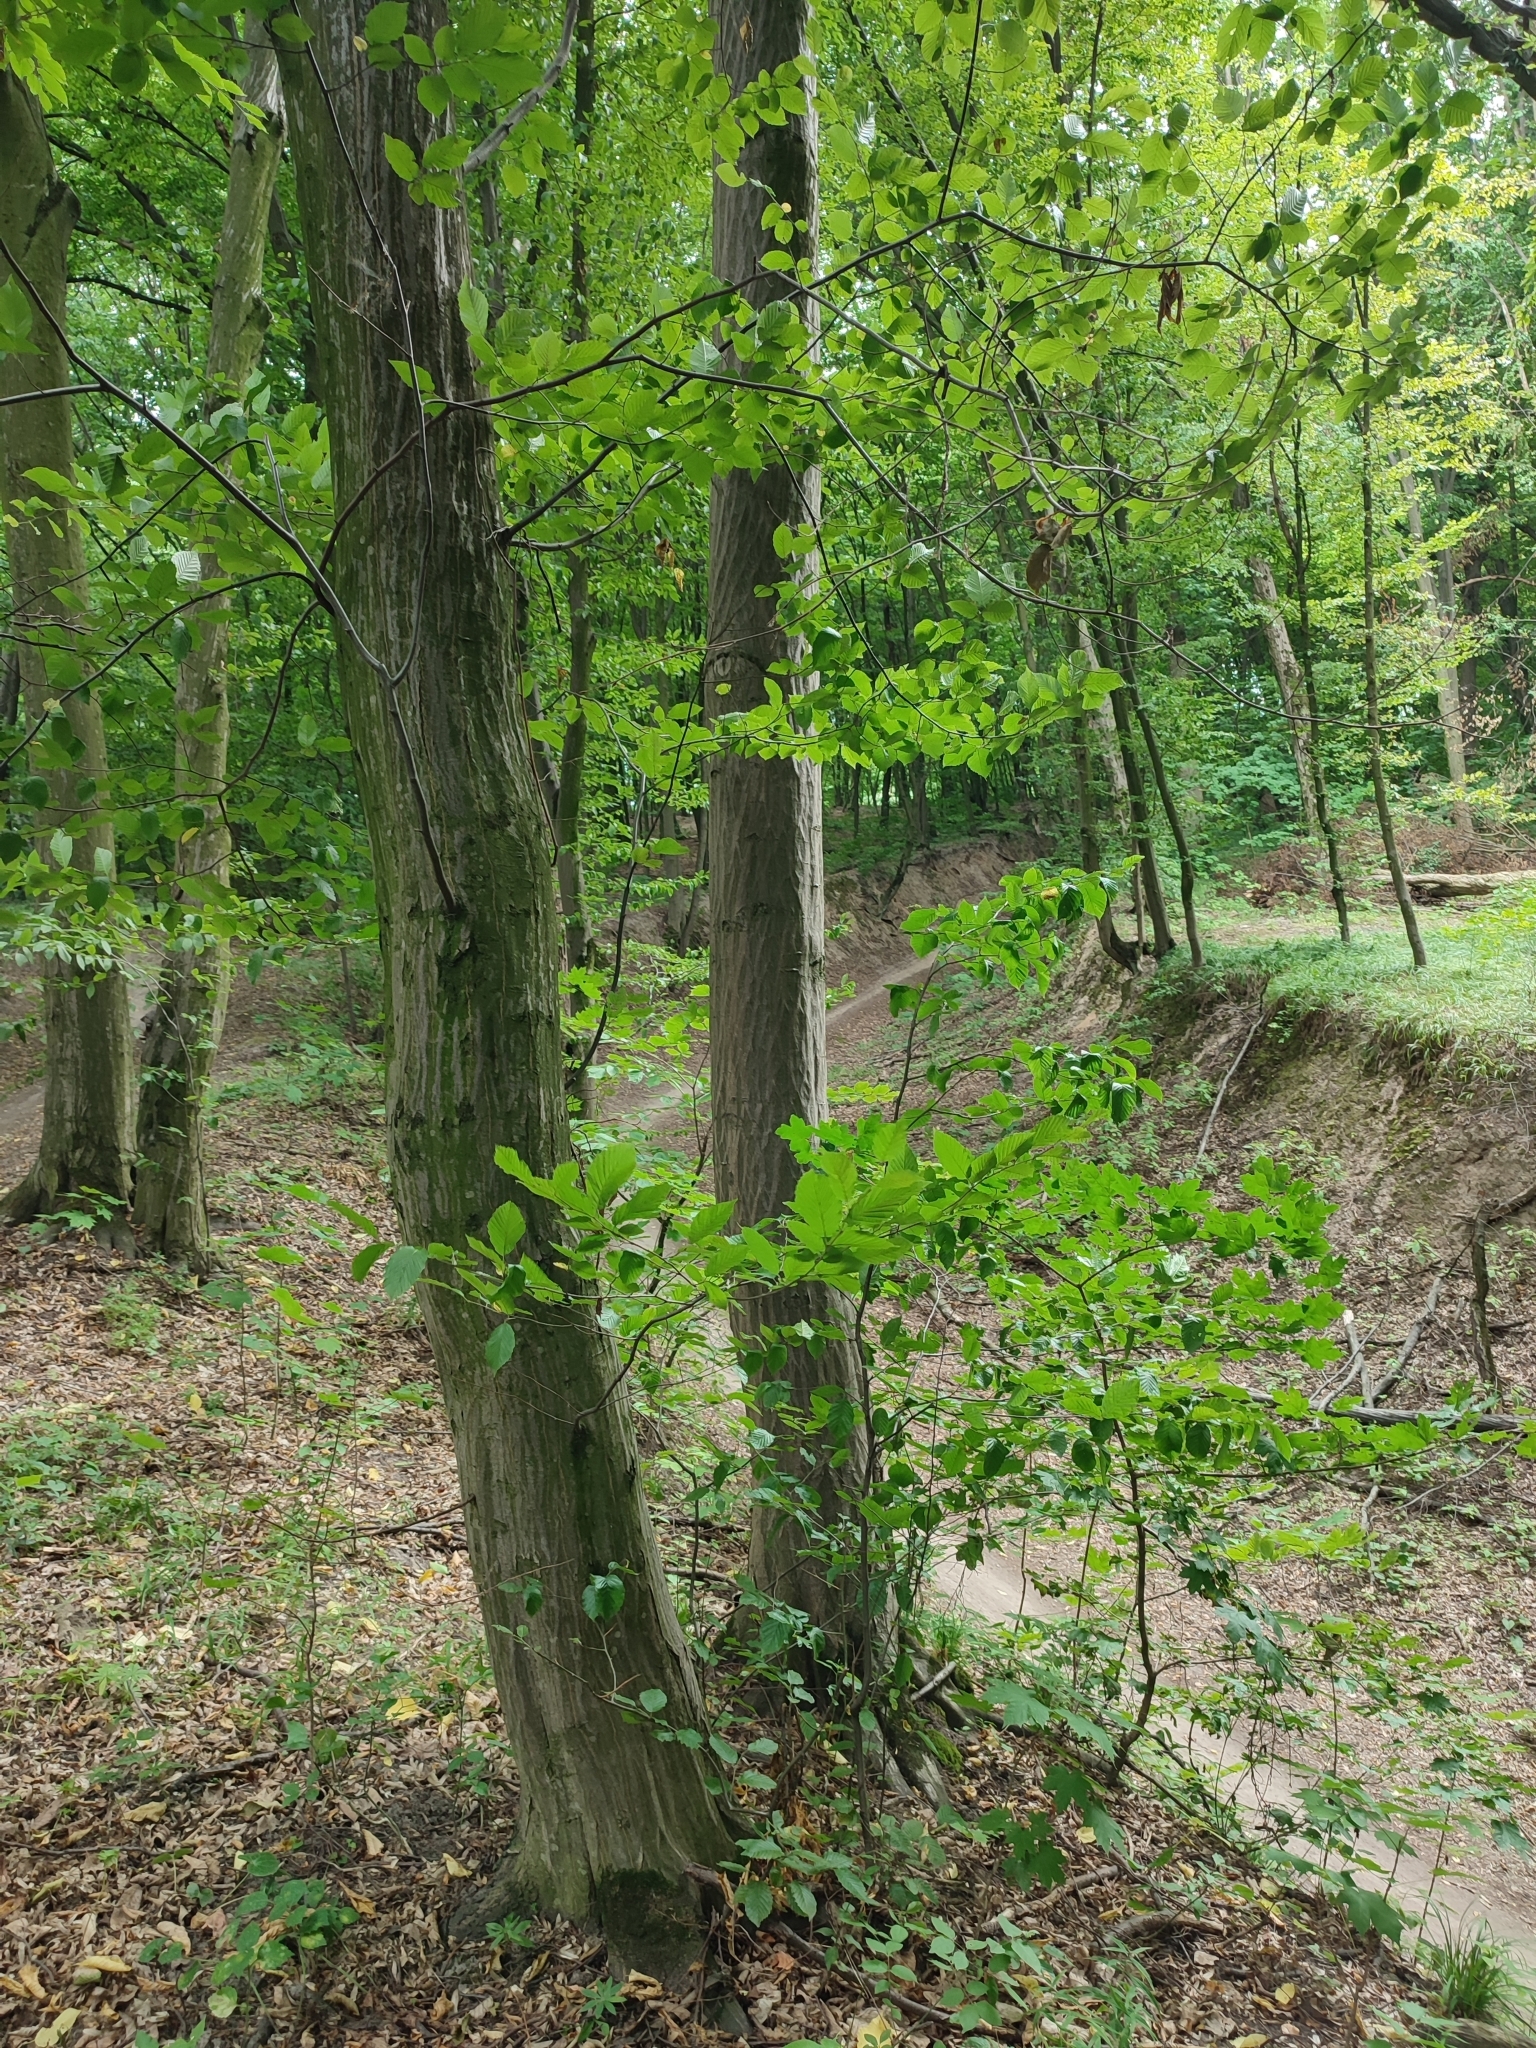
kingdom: Plantae
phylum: Tracheophyta
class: Magnoliopsida
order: Fagales
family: Betulaceae
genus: Carpinus
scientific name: Carpinus betulus
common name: Hornbeam
